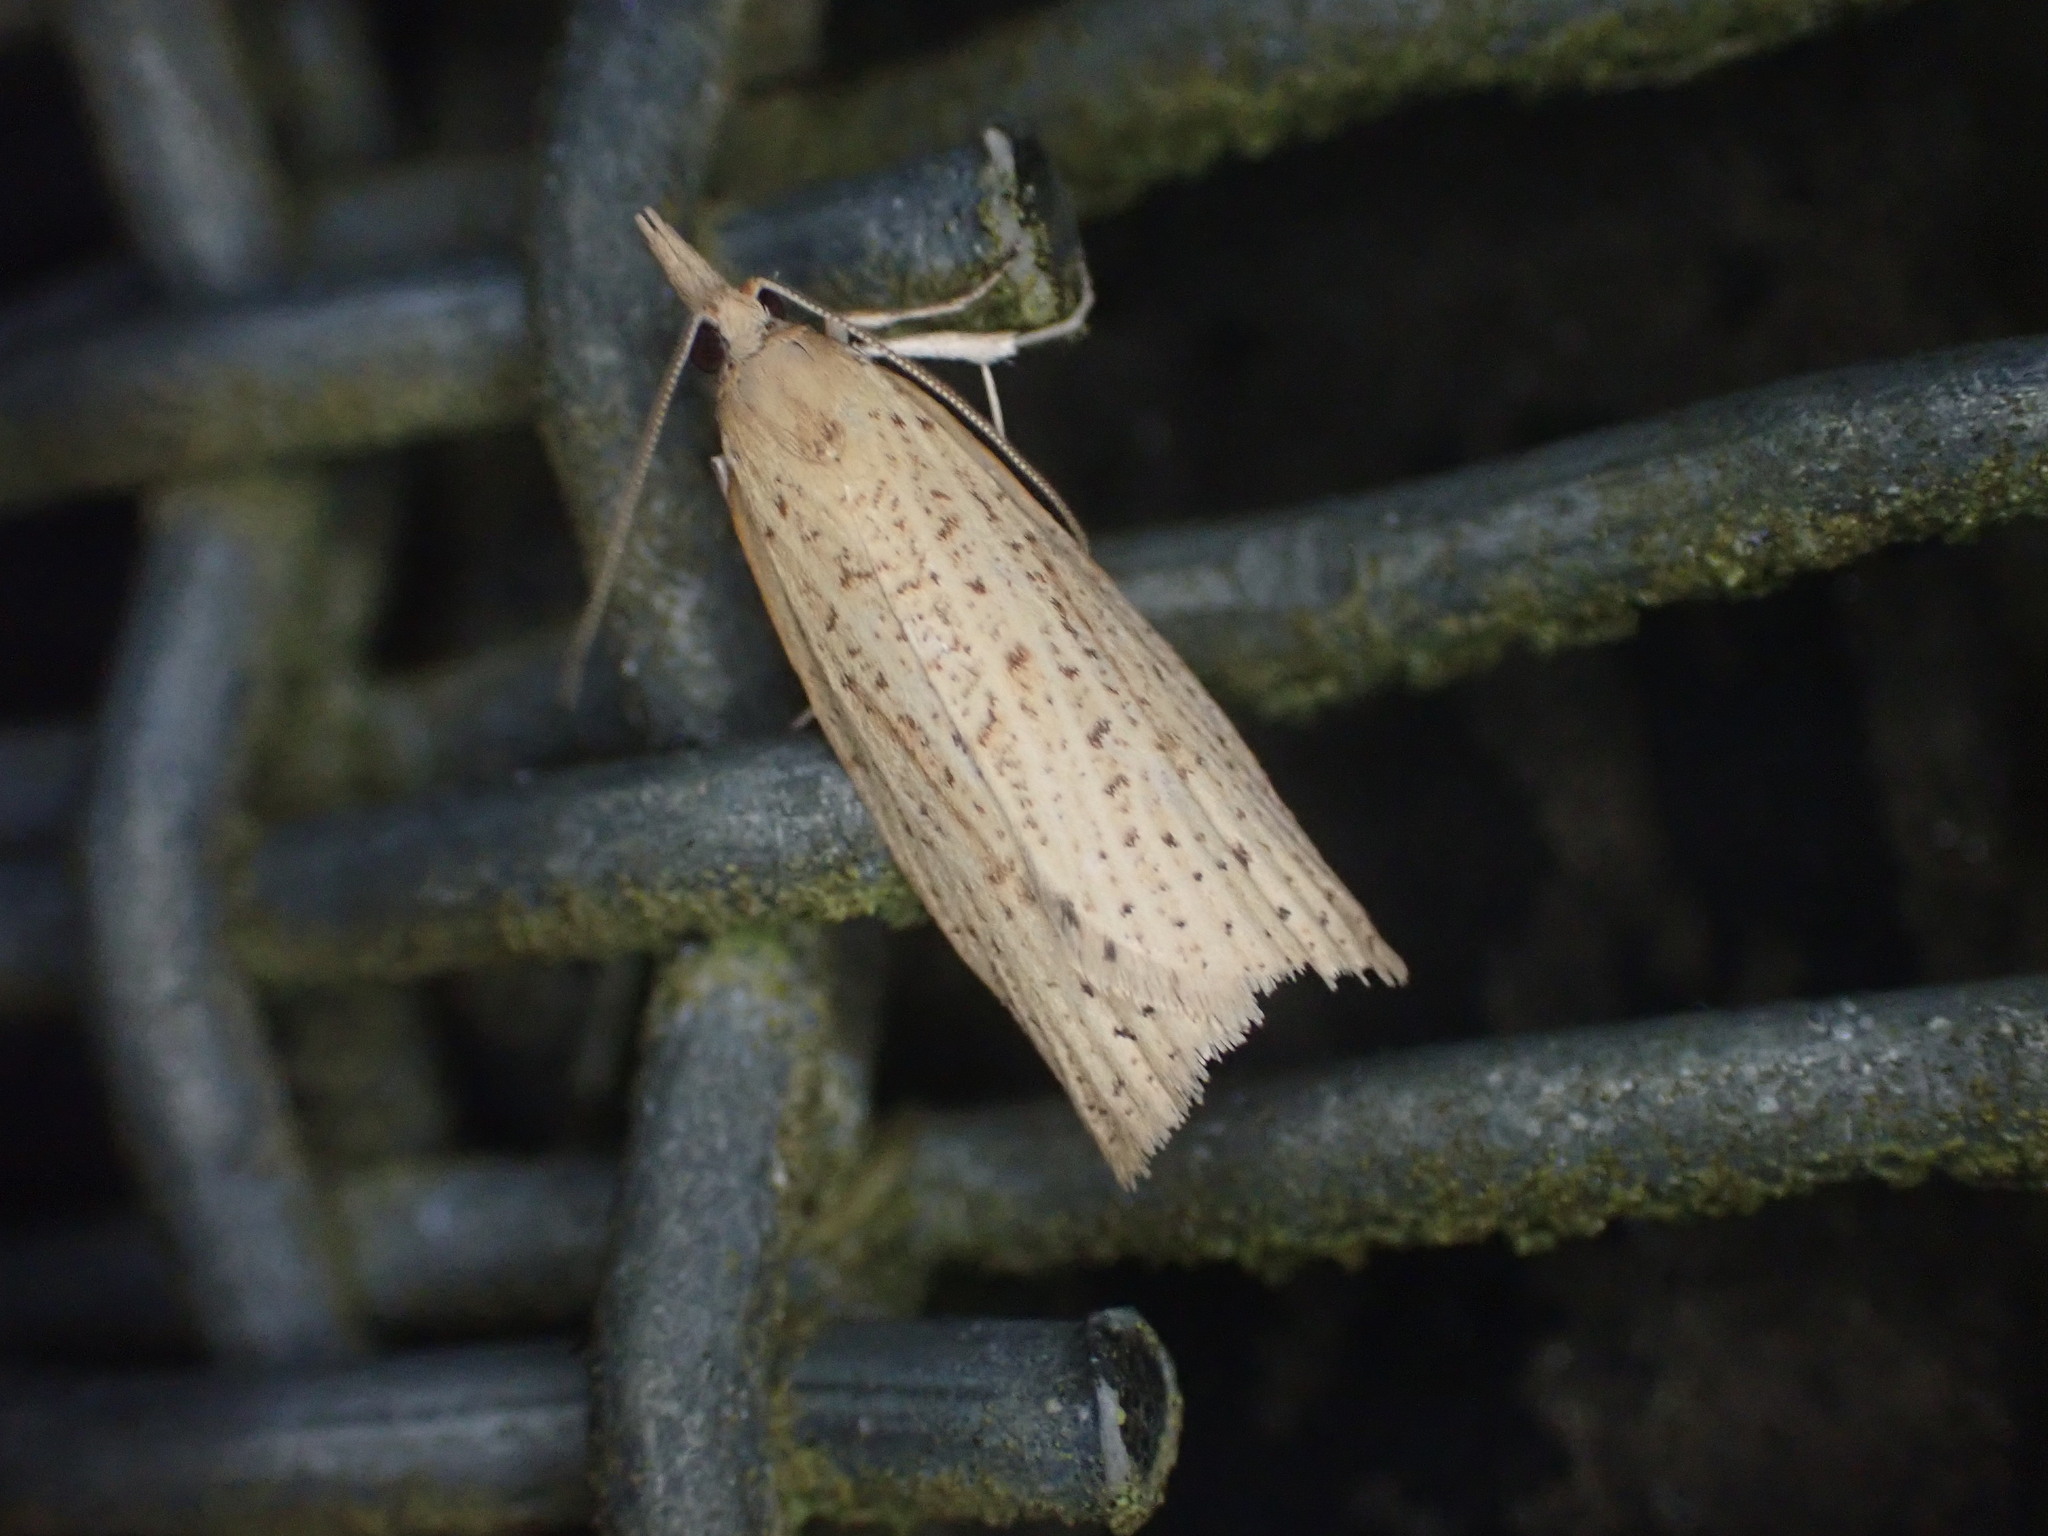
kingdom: Animalia
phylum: Arthropoda
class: Insecta
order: Lepidoptera
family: Tortricidae
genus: Apoctena
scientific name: Apoctena conditana
